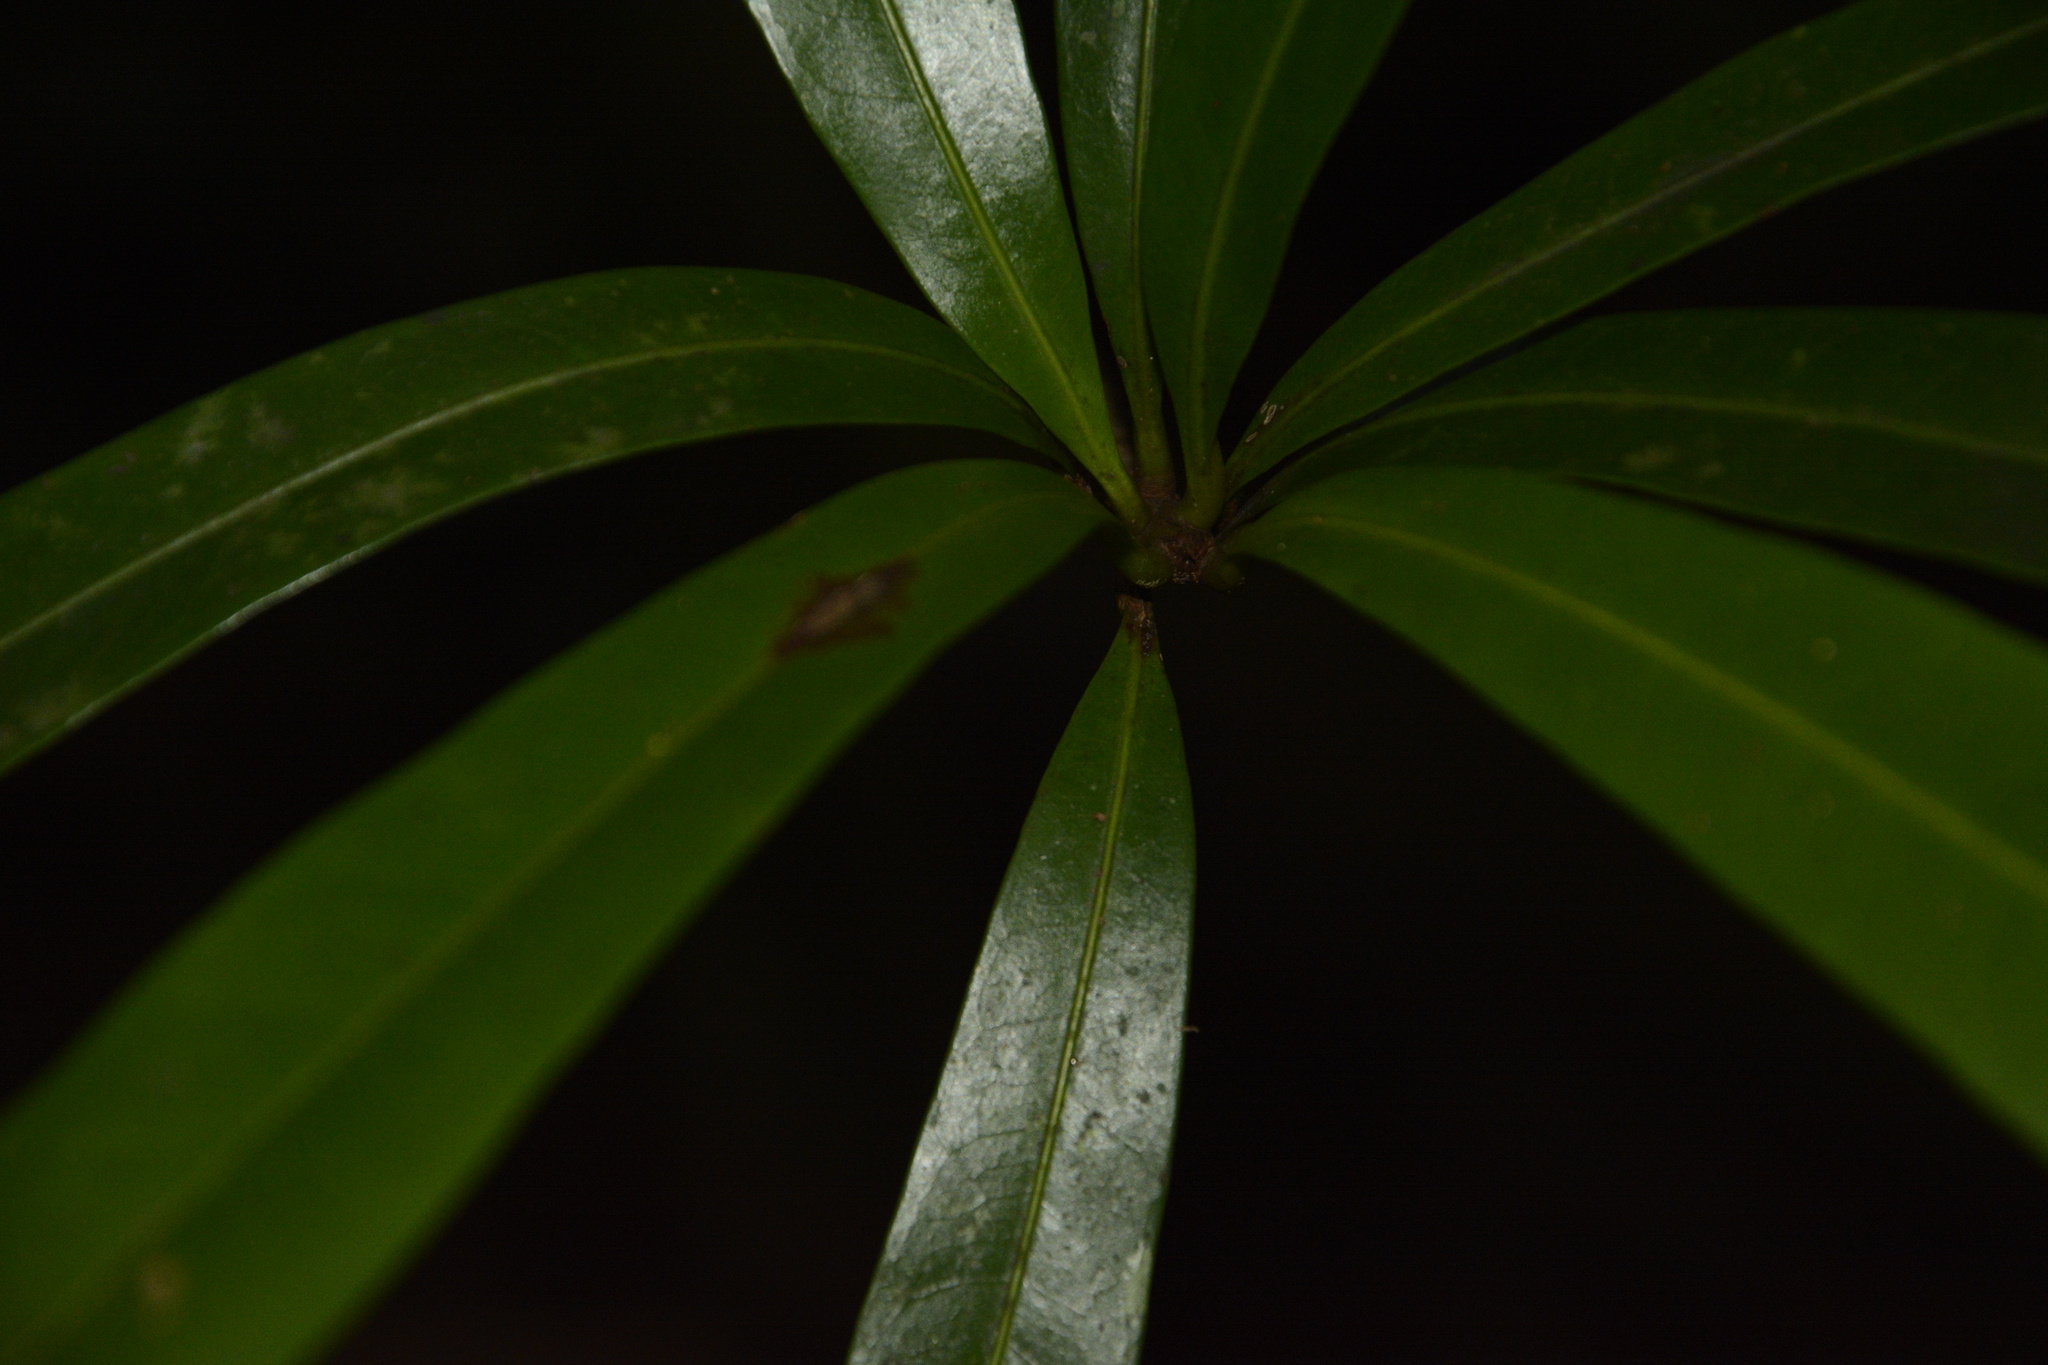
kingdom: Plantae
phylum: Tracheophyta
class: Magnoliopsida
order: Ericales
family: Sapotaceae
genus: Madhuca
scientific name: Madhuca neriifolia
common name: Illipe butter tree
